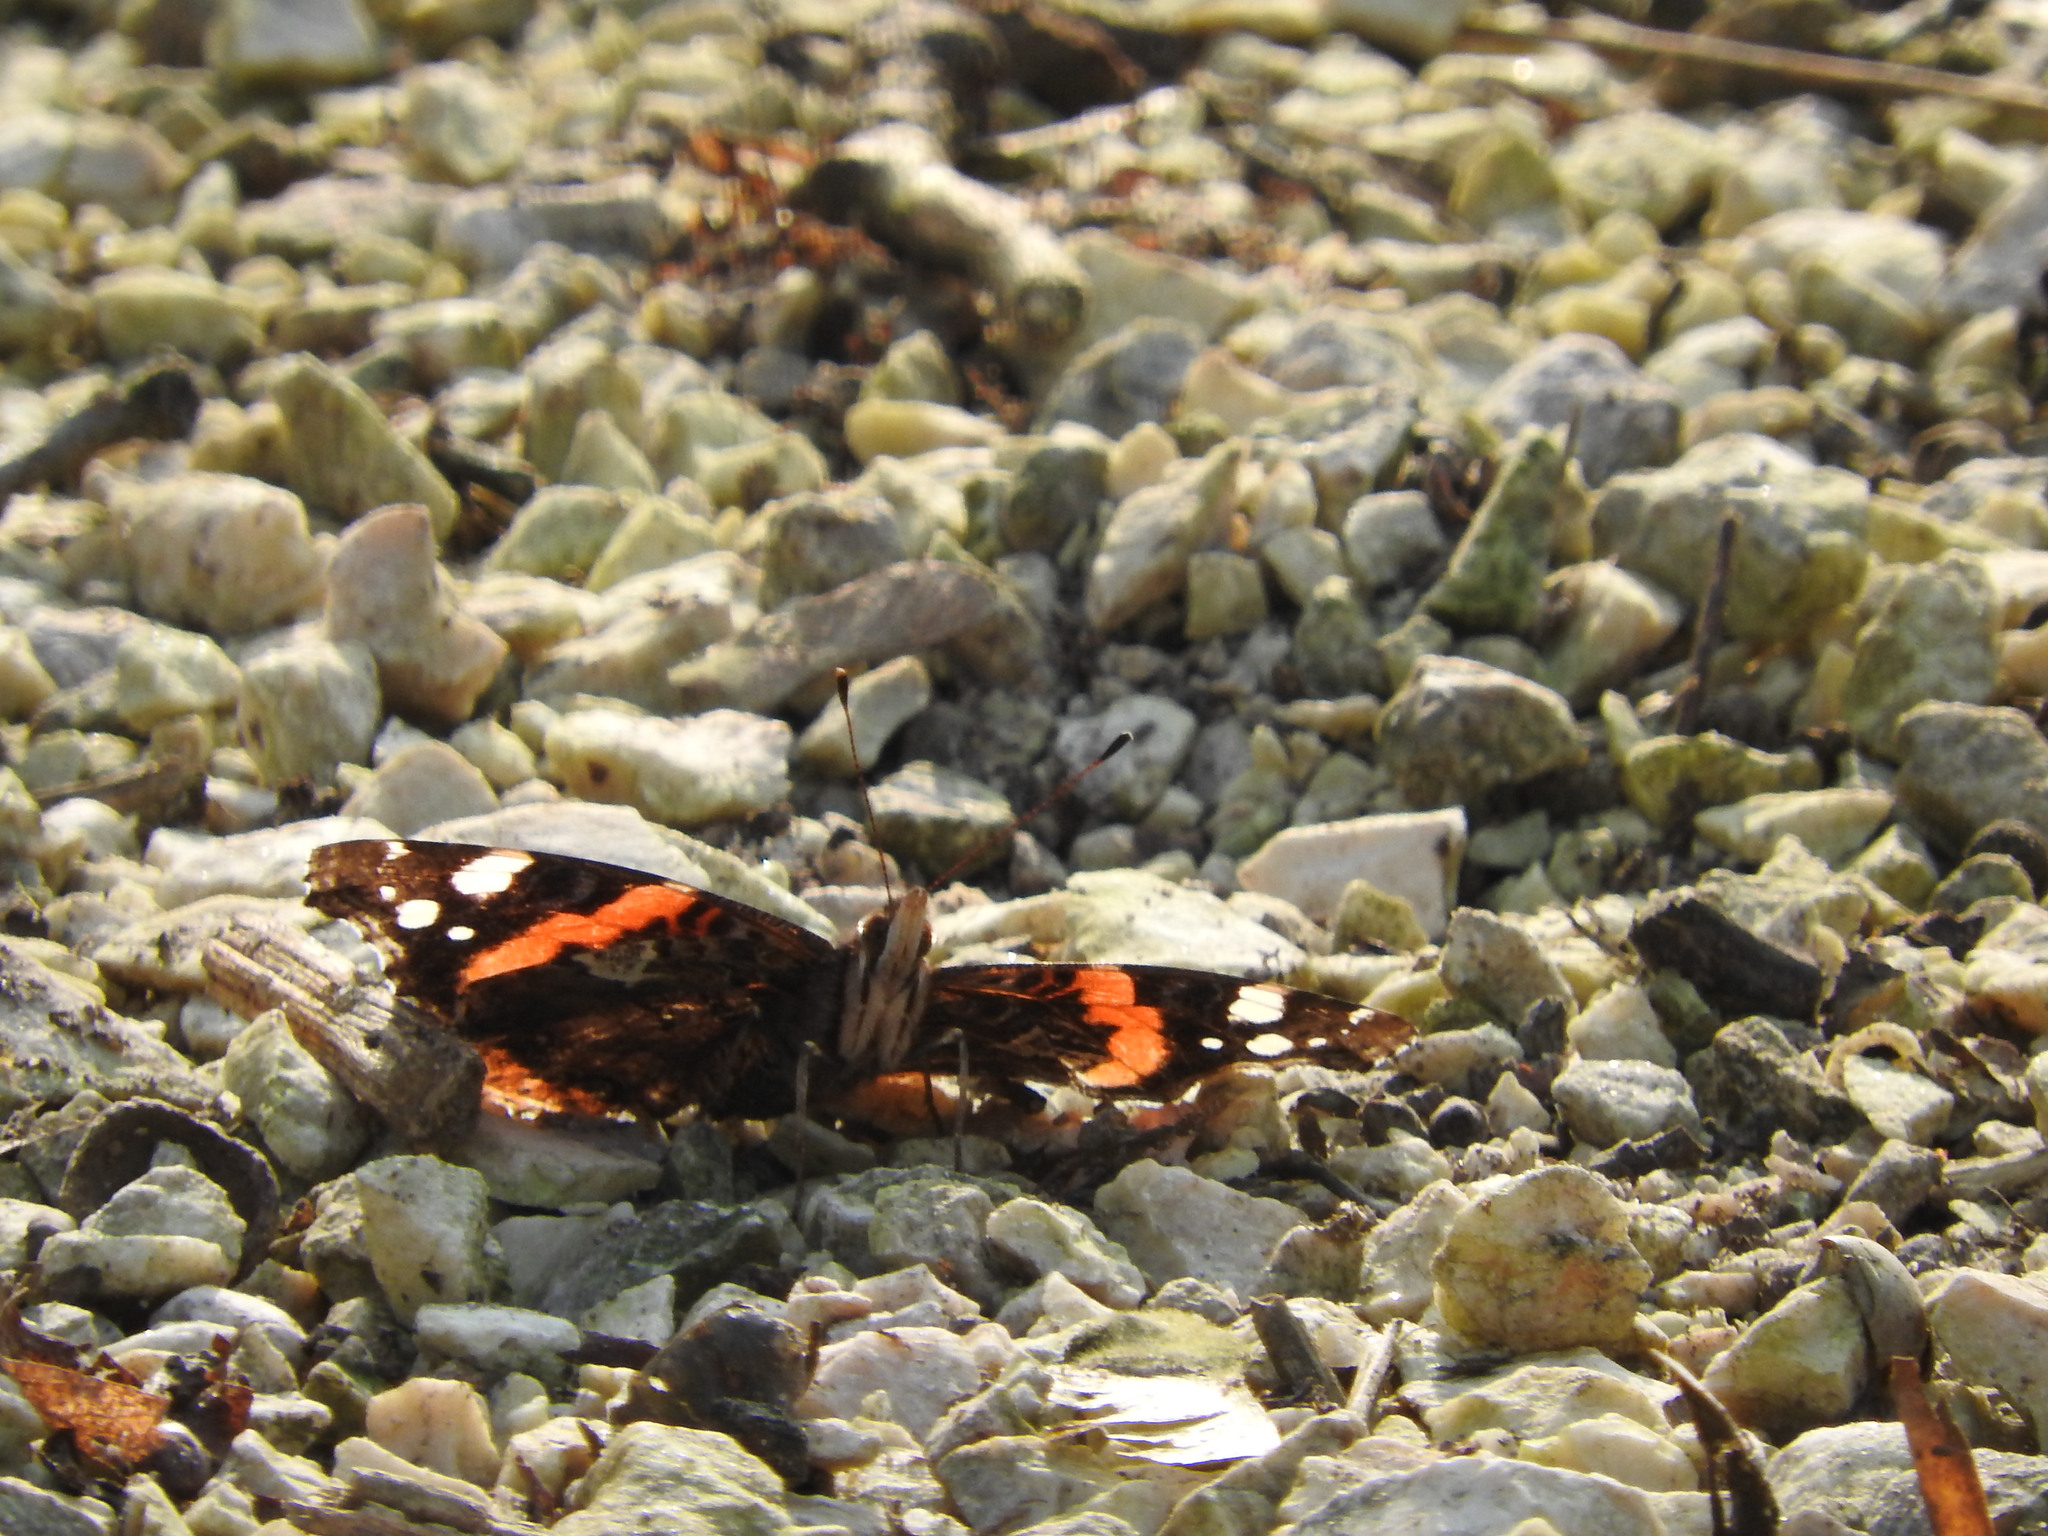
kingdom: Animalia
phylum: Arthropoda
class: Insecta
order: Lepidoptera
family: Nymphalidae
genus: Vanessa
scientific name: Vanessa atalanta
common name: Red admiral
